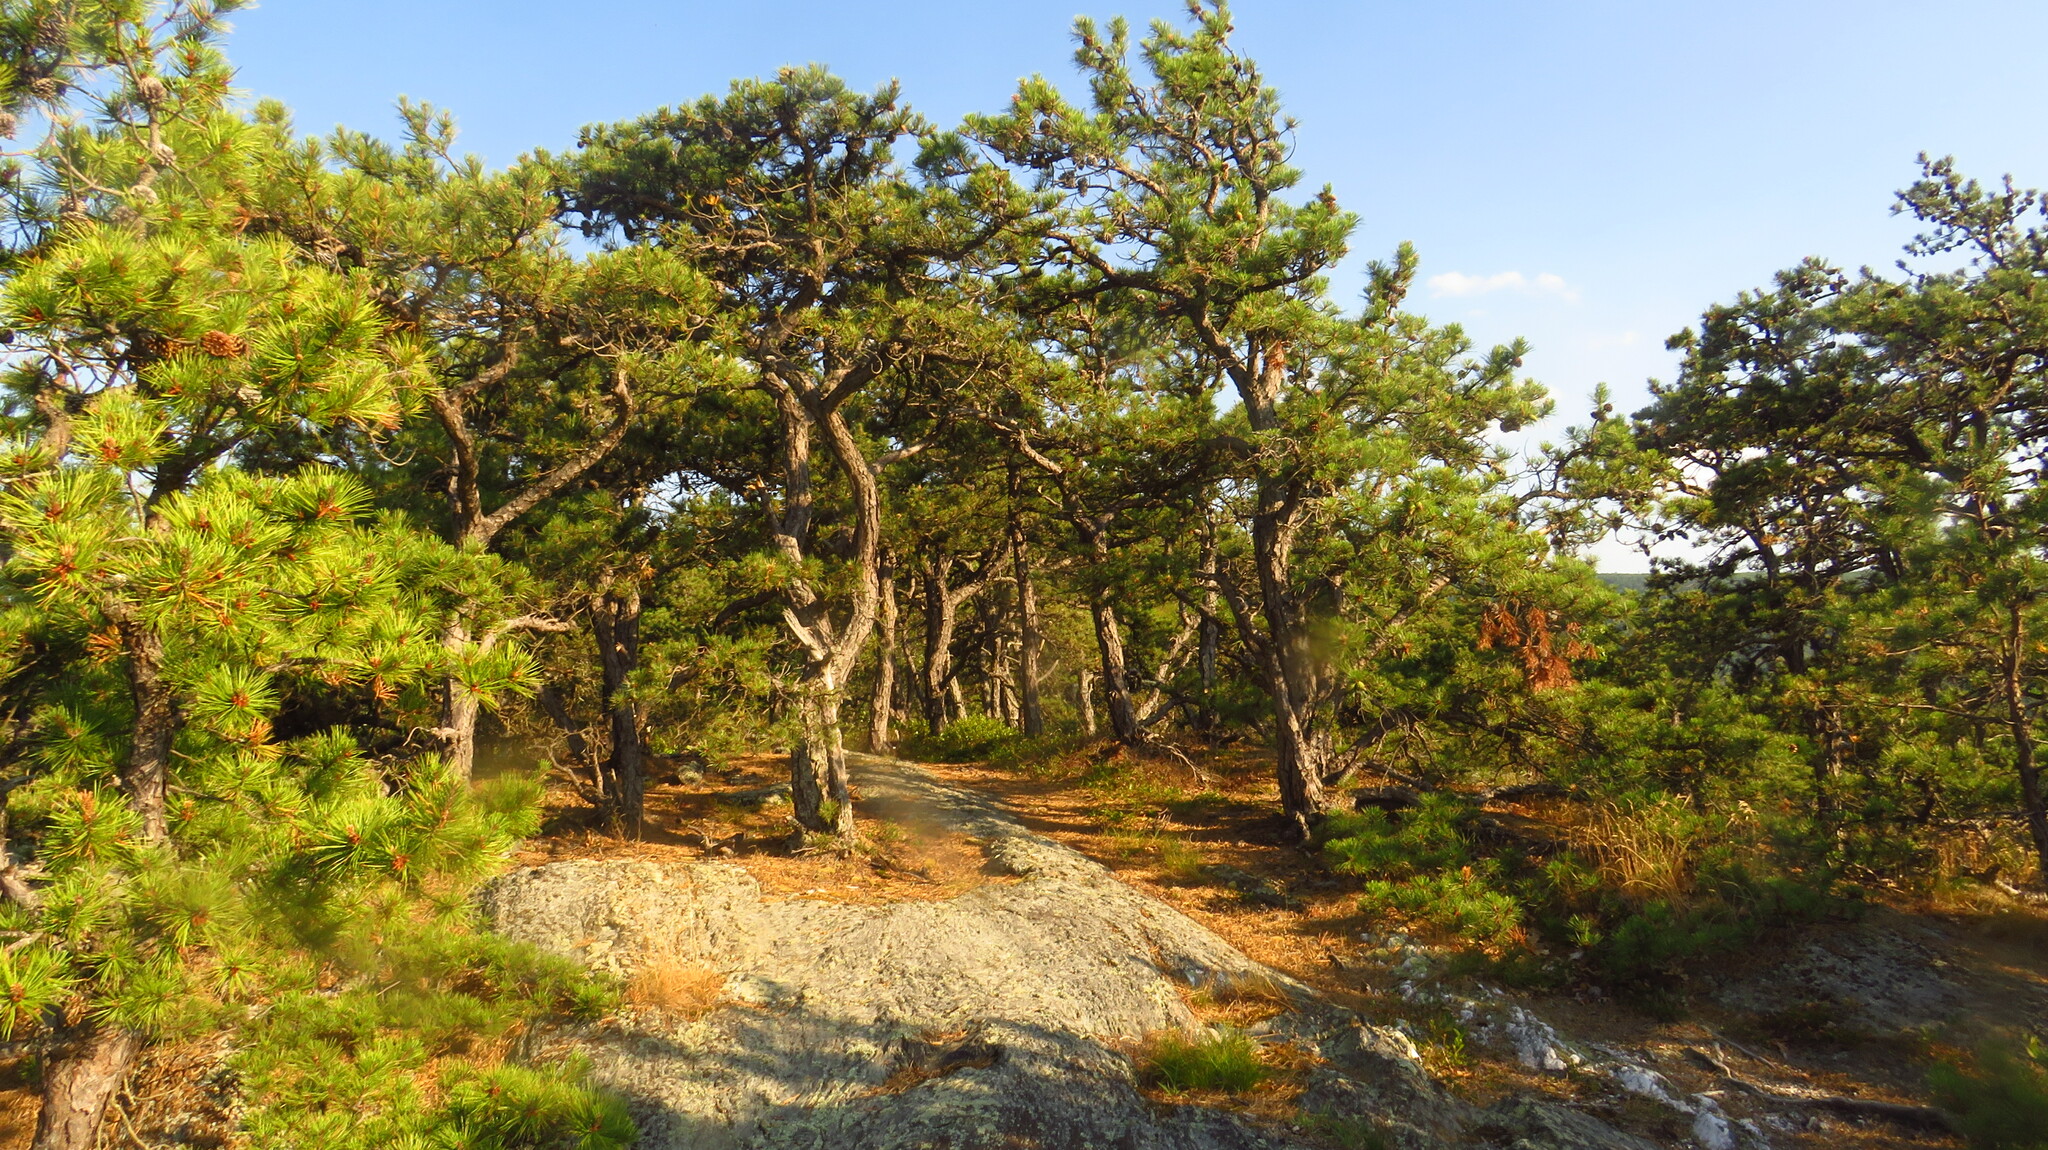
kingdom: Plantae
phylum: Tracheophyta
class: Pinopsida
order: Pinales
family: Pinaceae
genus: Pinus
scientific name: Pinus rigida
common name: Pitch pine
